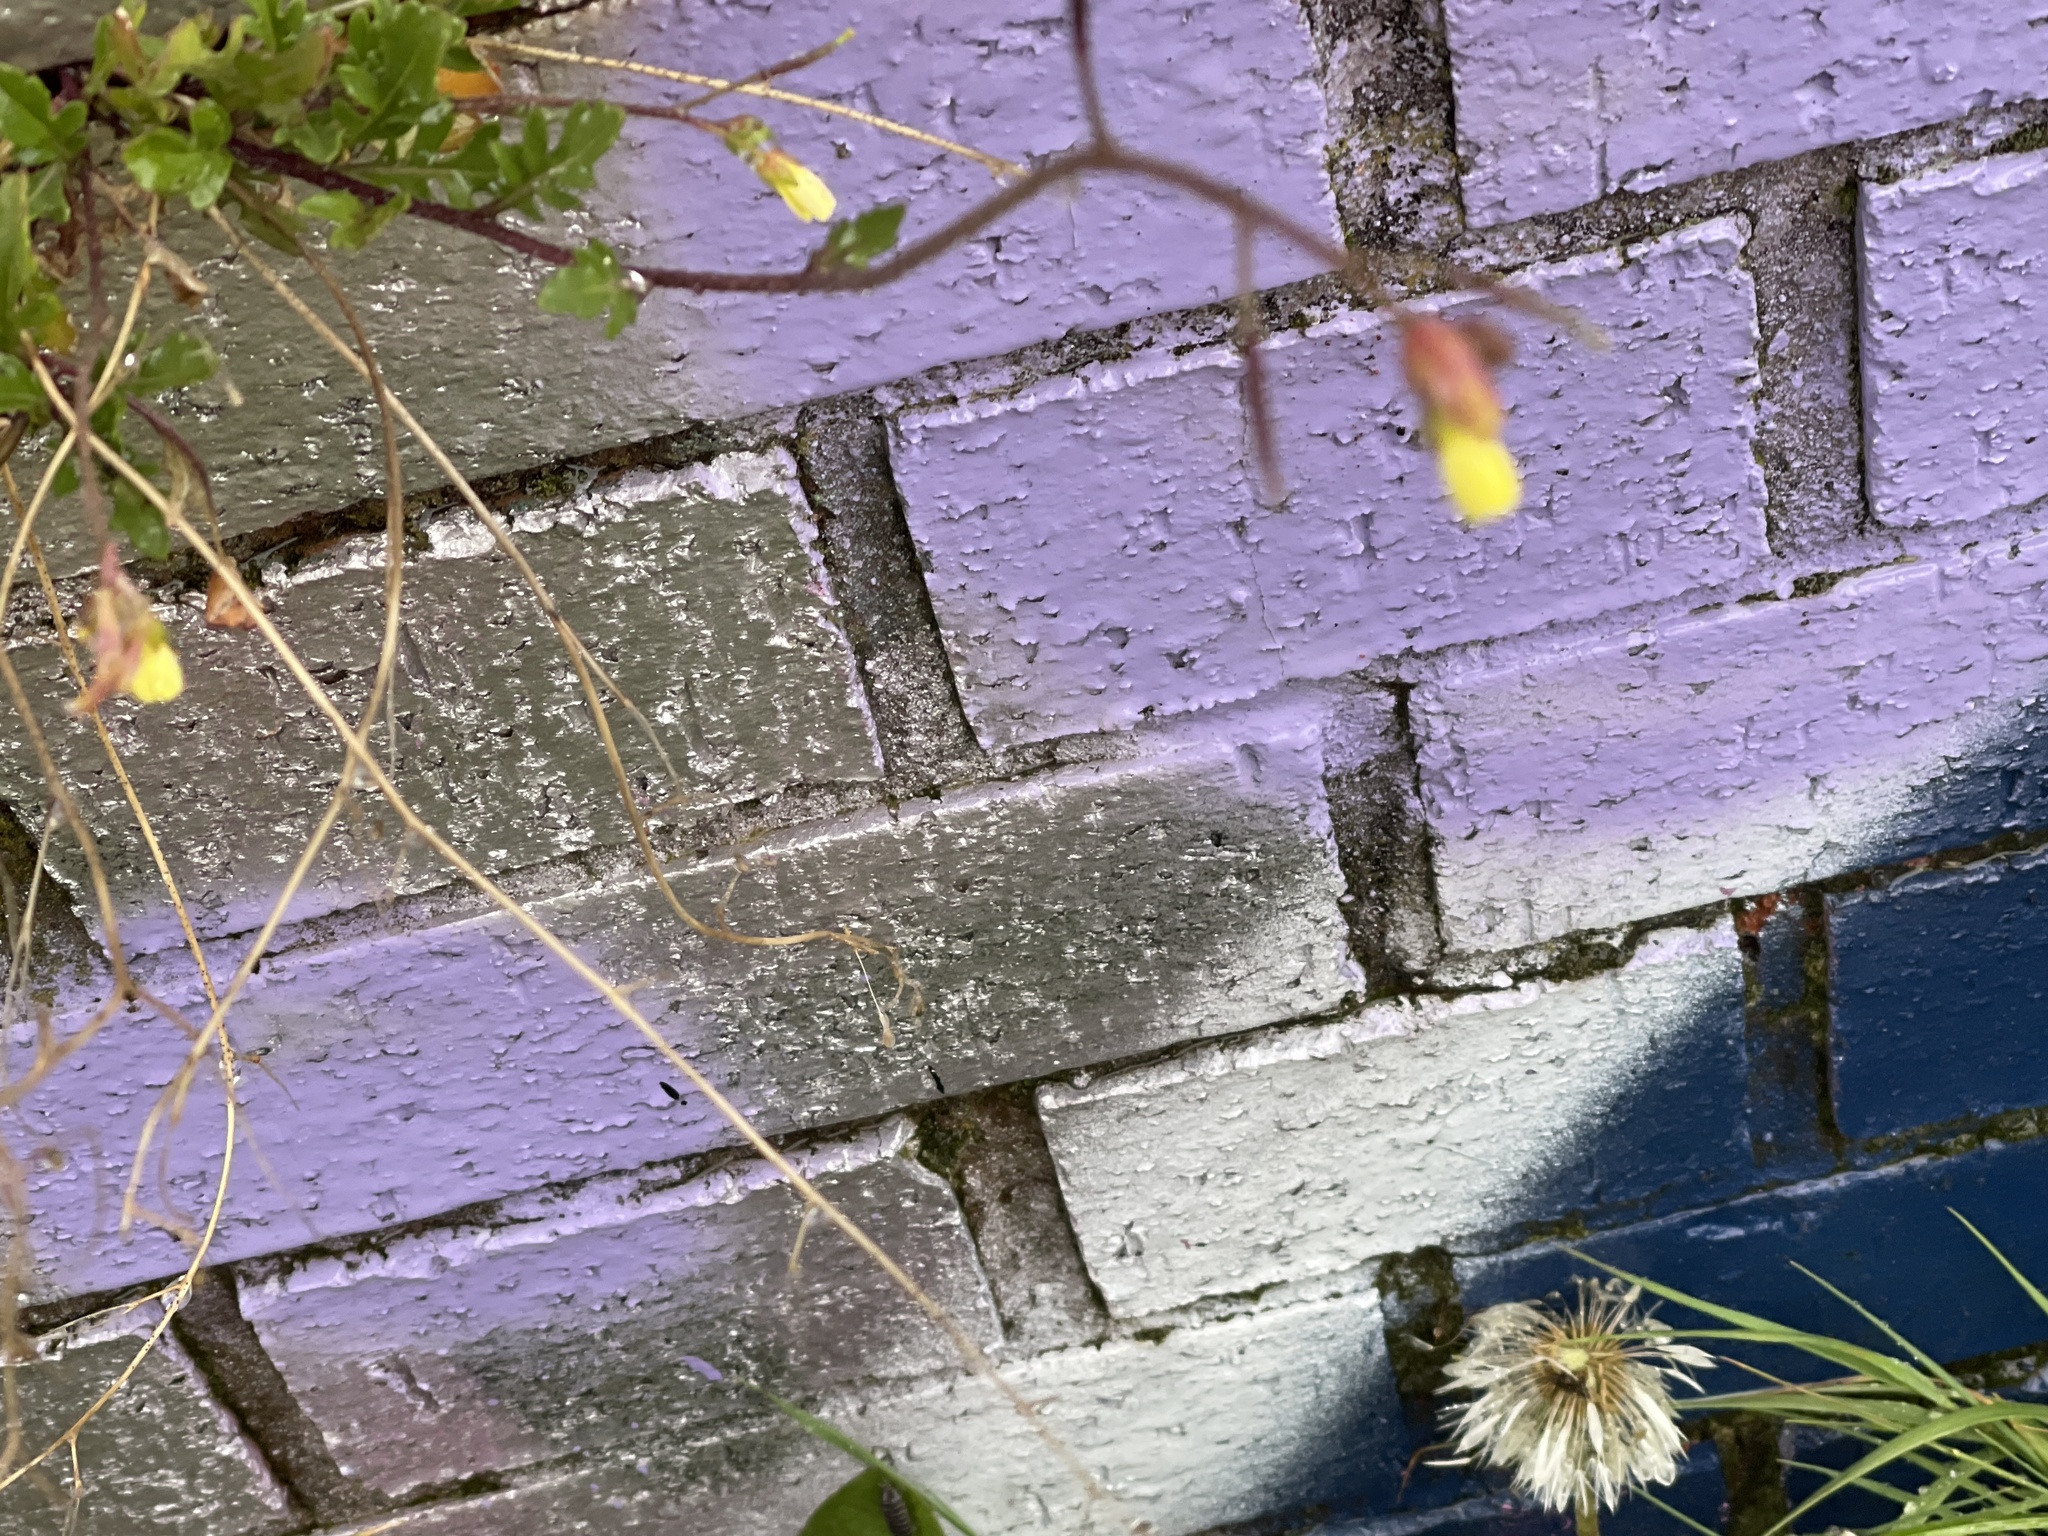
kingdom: Plantae
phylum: Tracheophyta
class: Magnoliopsida
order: Brassicales
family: Brassicaceae
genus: Diplotaxis
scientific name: Diplotaxis muralis
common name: Annual wall-rocket
